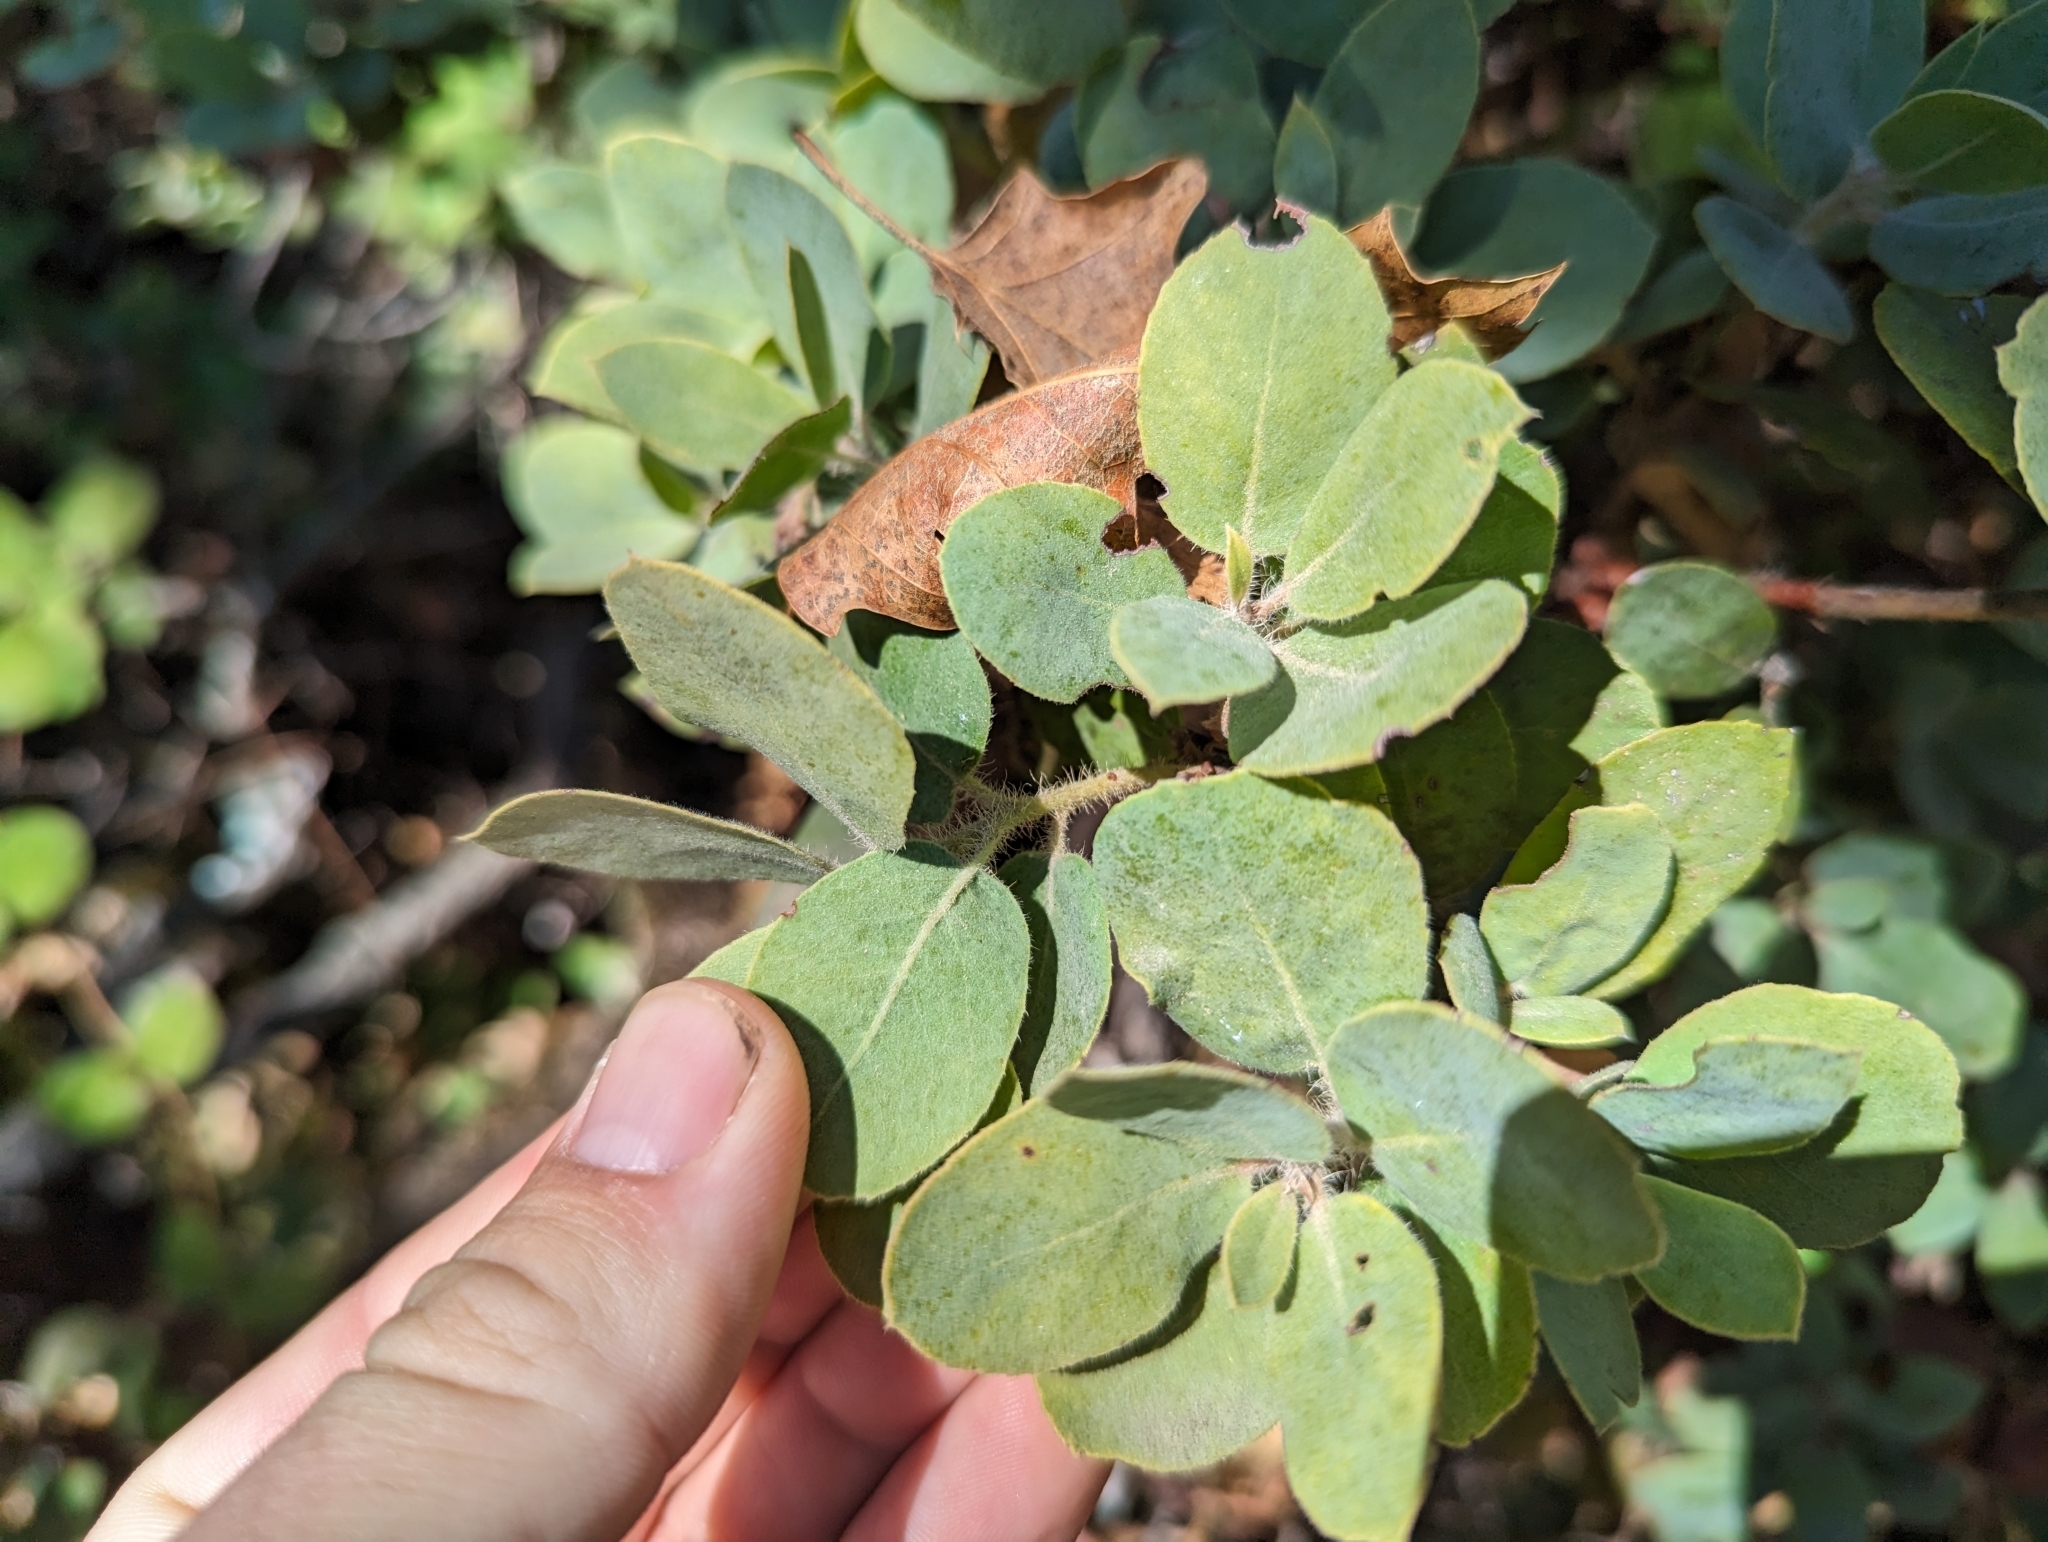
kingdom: Plantae
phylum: Tracheophyta
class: Magnoliopsida
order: Ericales
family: Ericaceae
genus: Arctostaphylos
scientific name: Arctostaphylos crustacea
